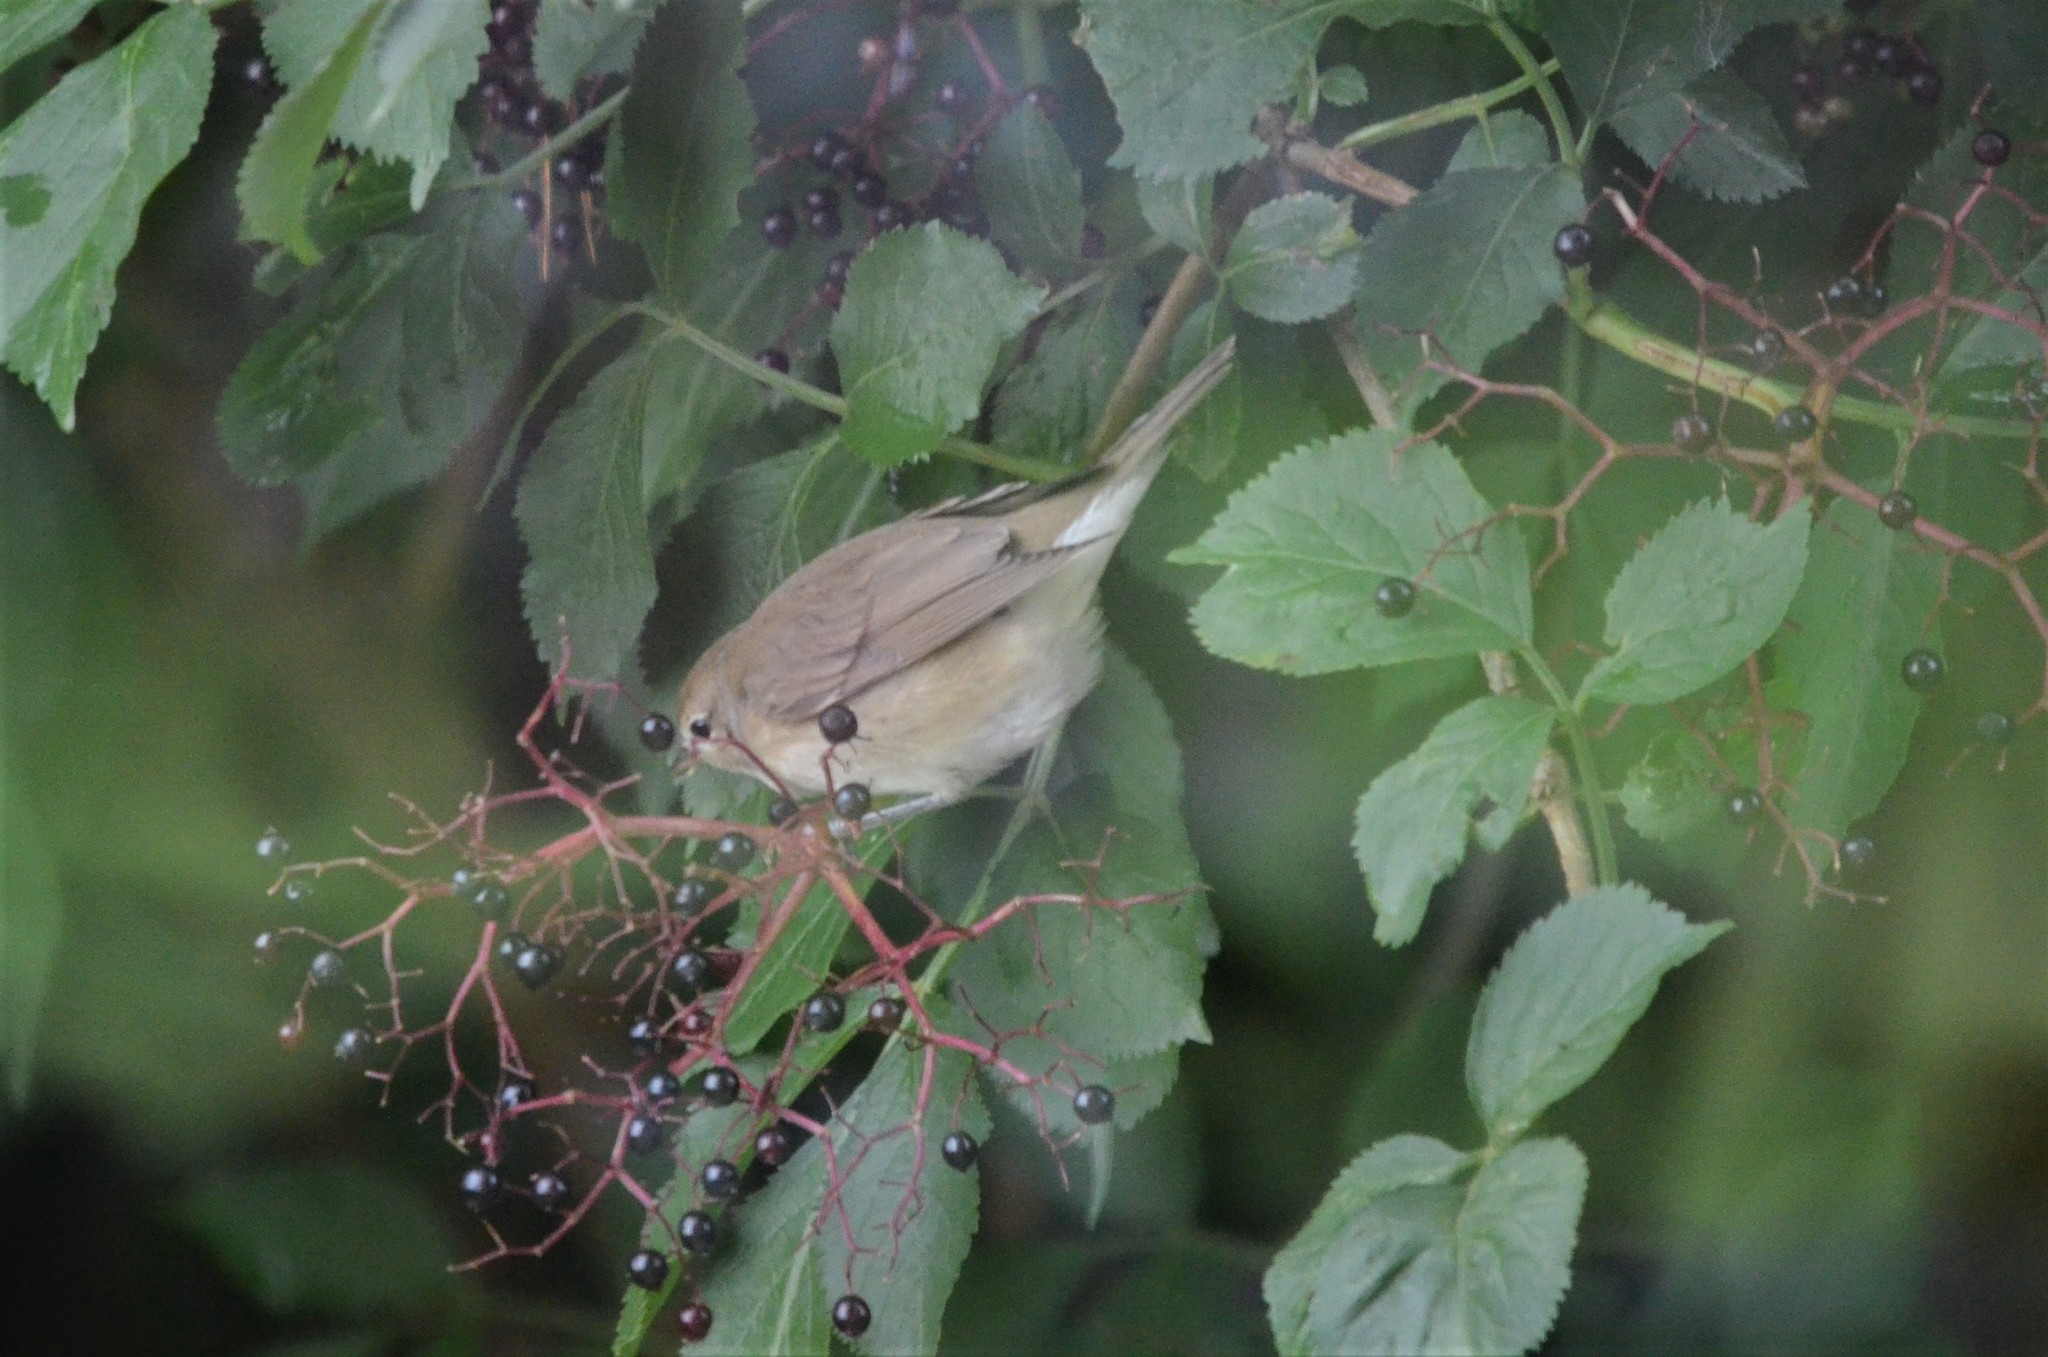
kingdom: Animalia
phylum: Chordata
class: Aves
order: Passeriformes
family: Sylviidae
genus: Sylvia
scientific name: Sylvia borin
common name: Garden warbler
